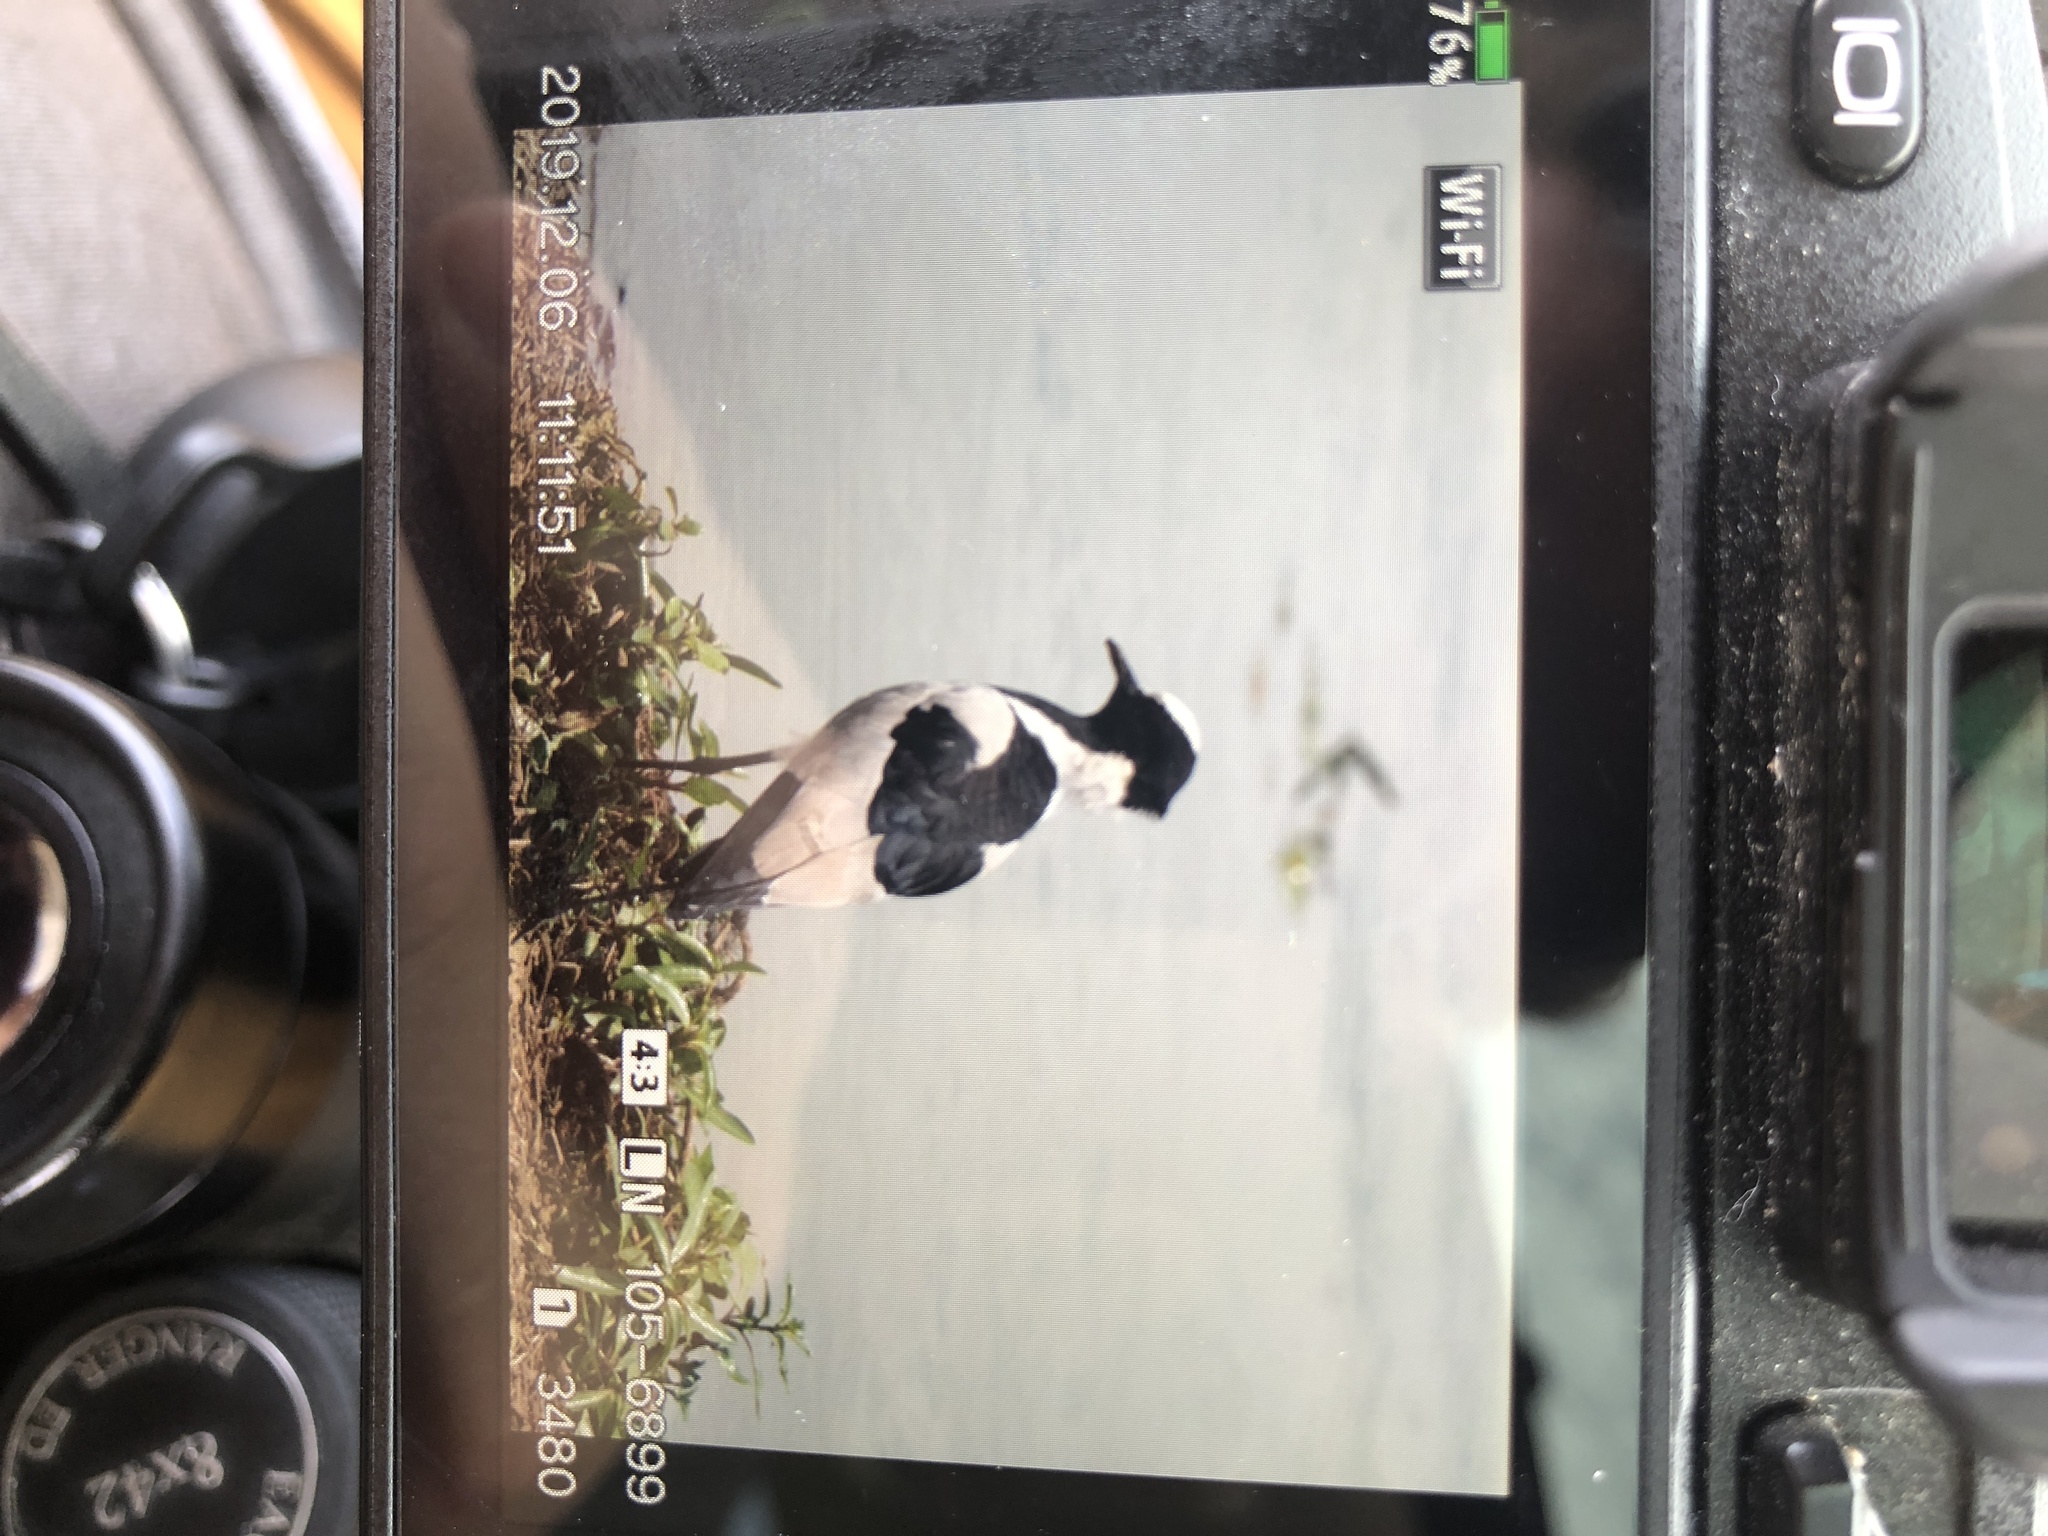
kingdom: Animalia
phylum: Chordata
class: Aves
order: Charadriiformes
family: Charadriidae
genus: Vanellus
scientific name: Vanellus armatus
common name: Blacksmith lapwing
